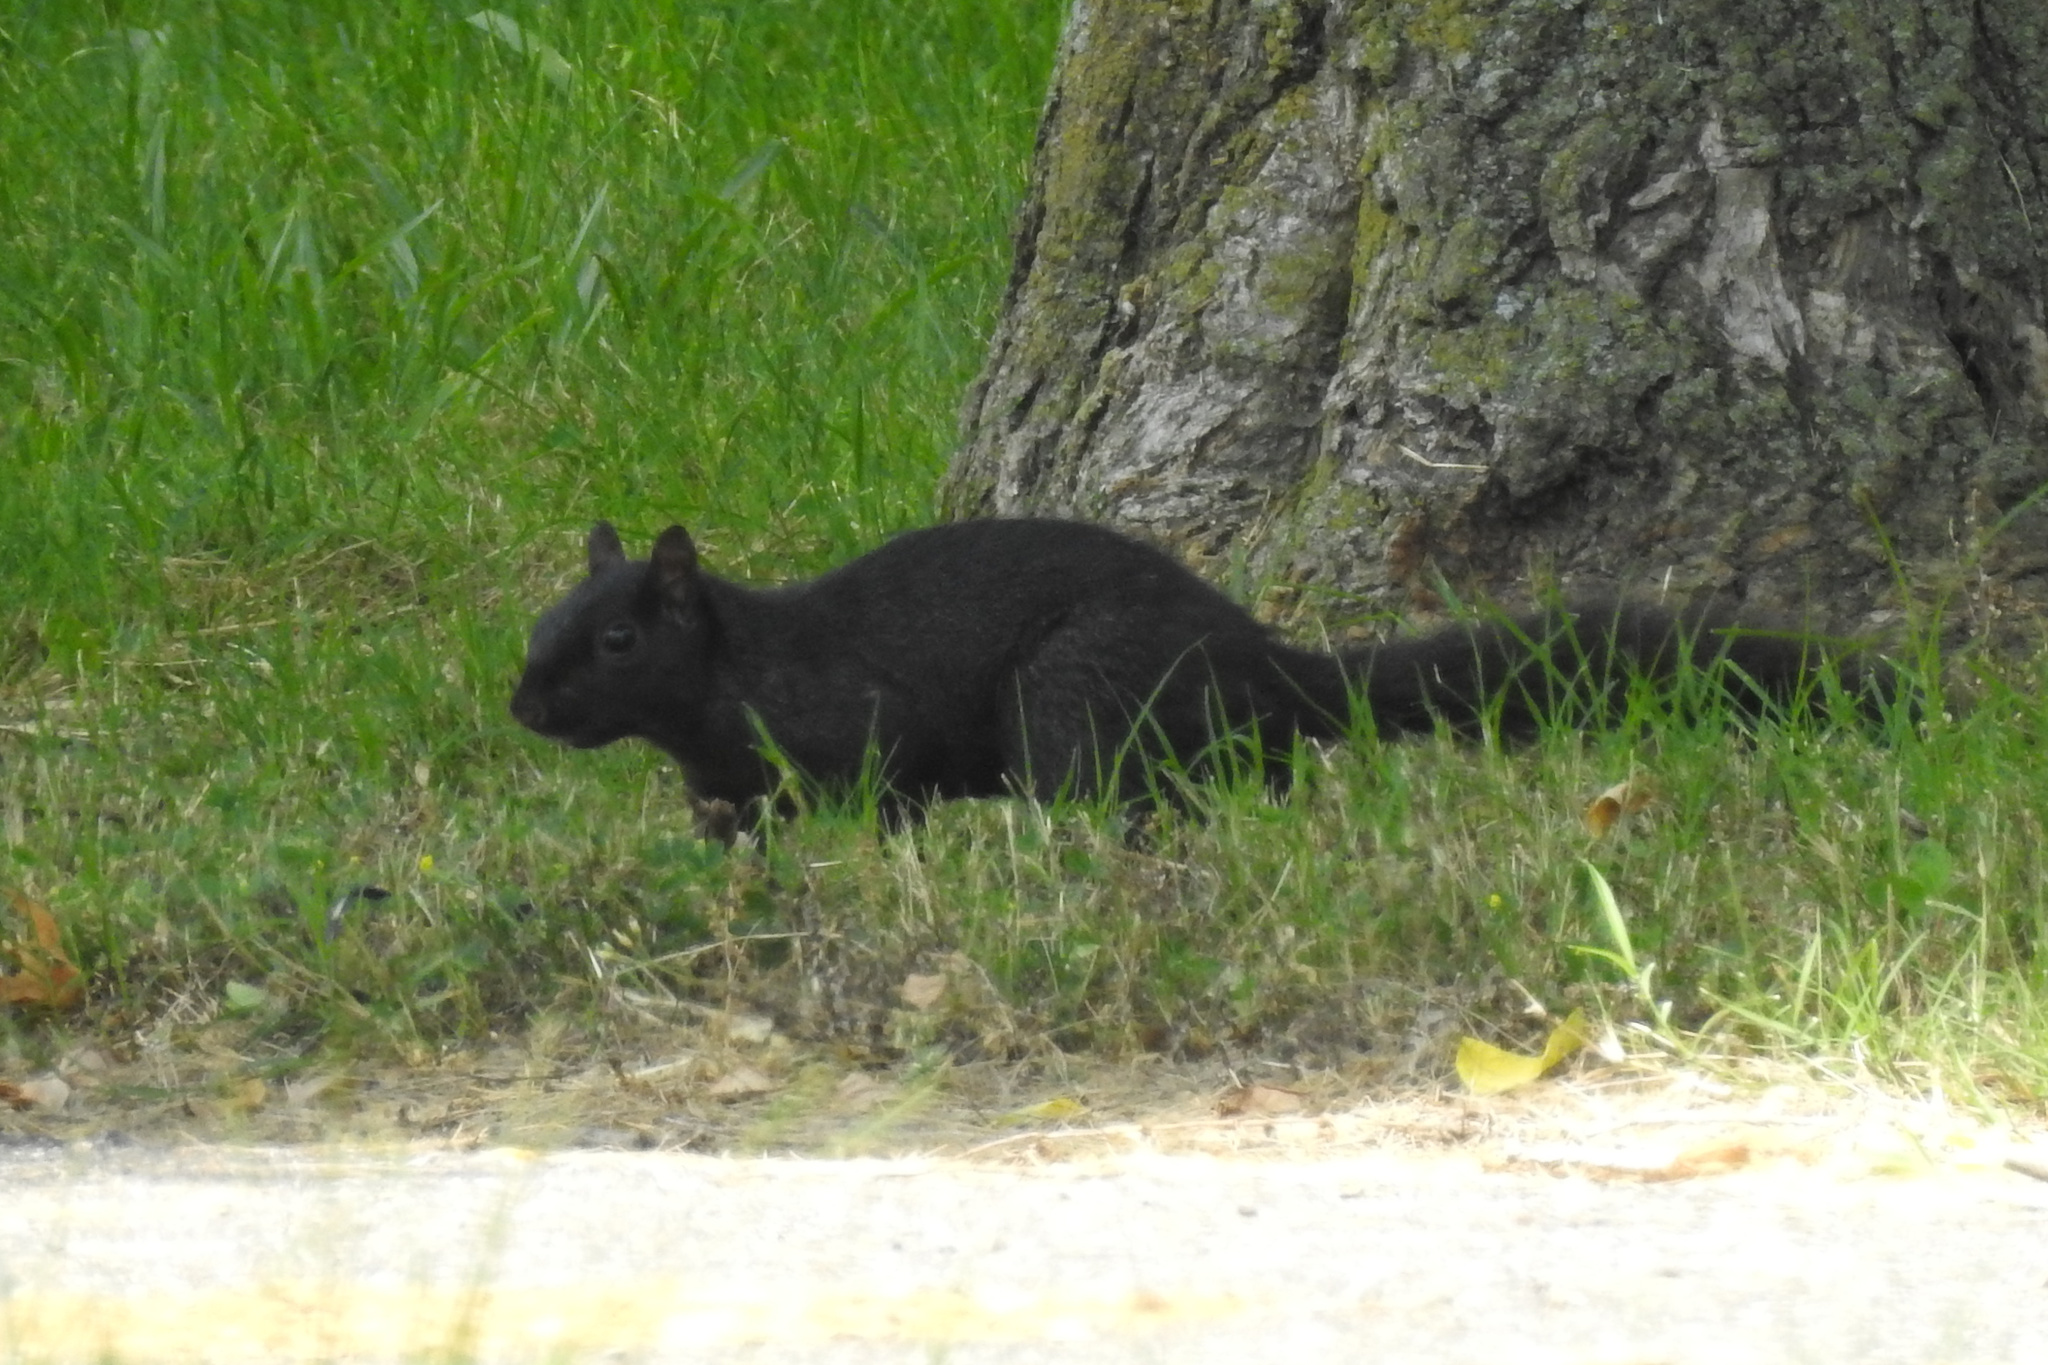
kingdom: Animalia
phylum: Chordata
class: Mammalia
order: Rodentia
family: Sciuridae
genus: Sciurus
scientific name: Sciurus carolinensis
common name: Eastern gray squirrel
